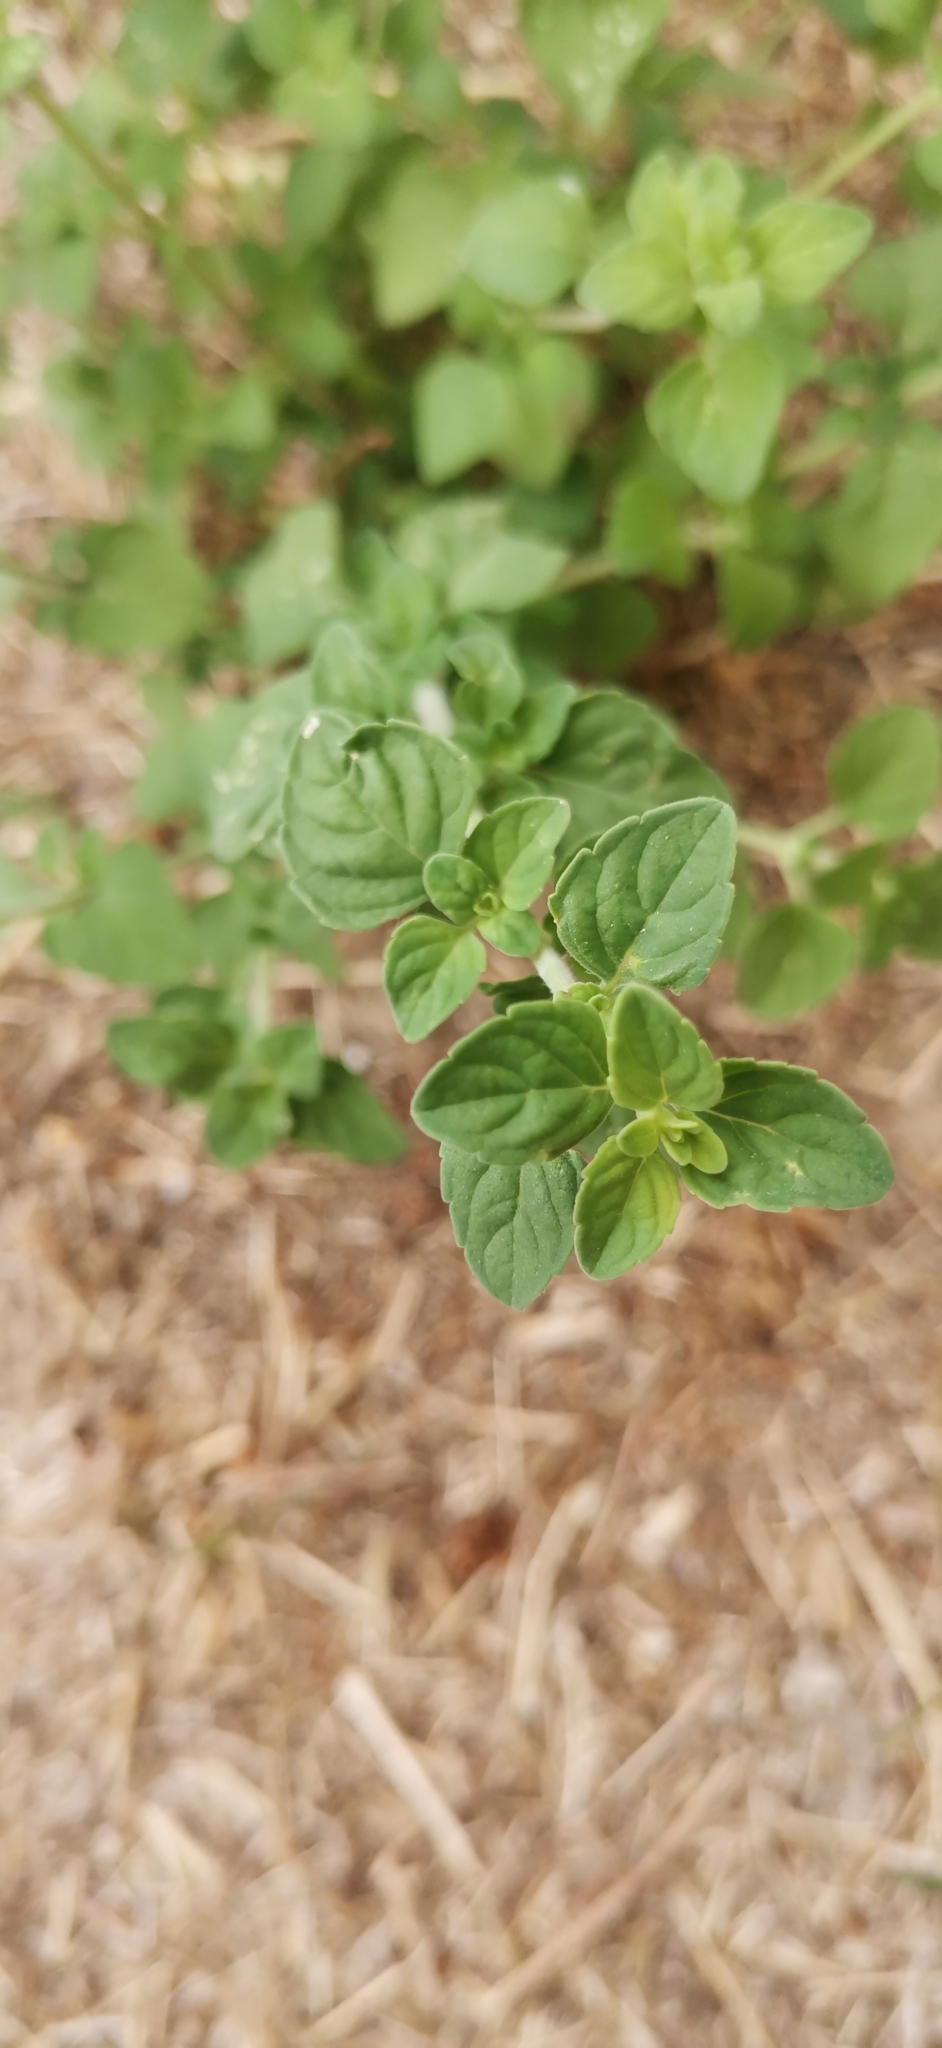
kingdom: Plantae
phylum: Tracheophyta
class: Magnoliopsida
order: Lamiales
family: Lamiaceae
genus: Clinopodium
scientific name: Clinopodium nepeta
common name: Lesser calamint
